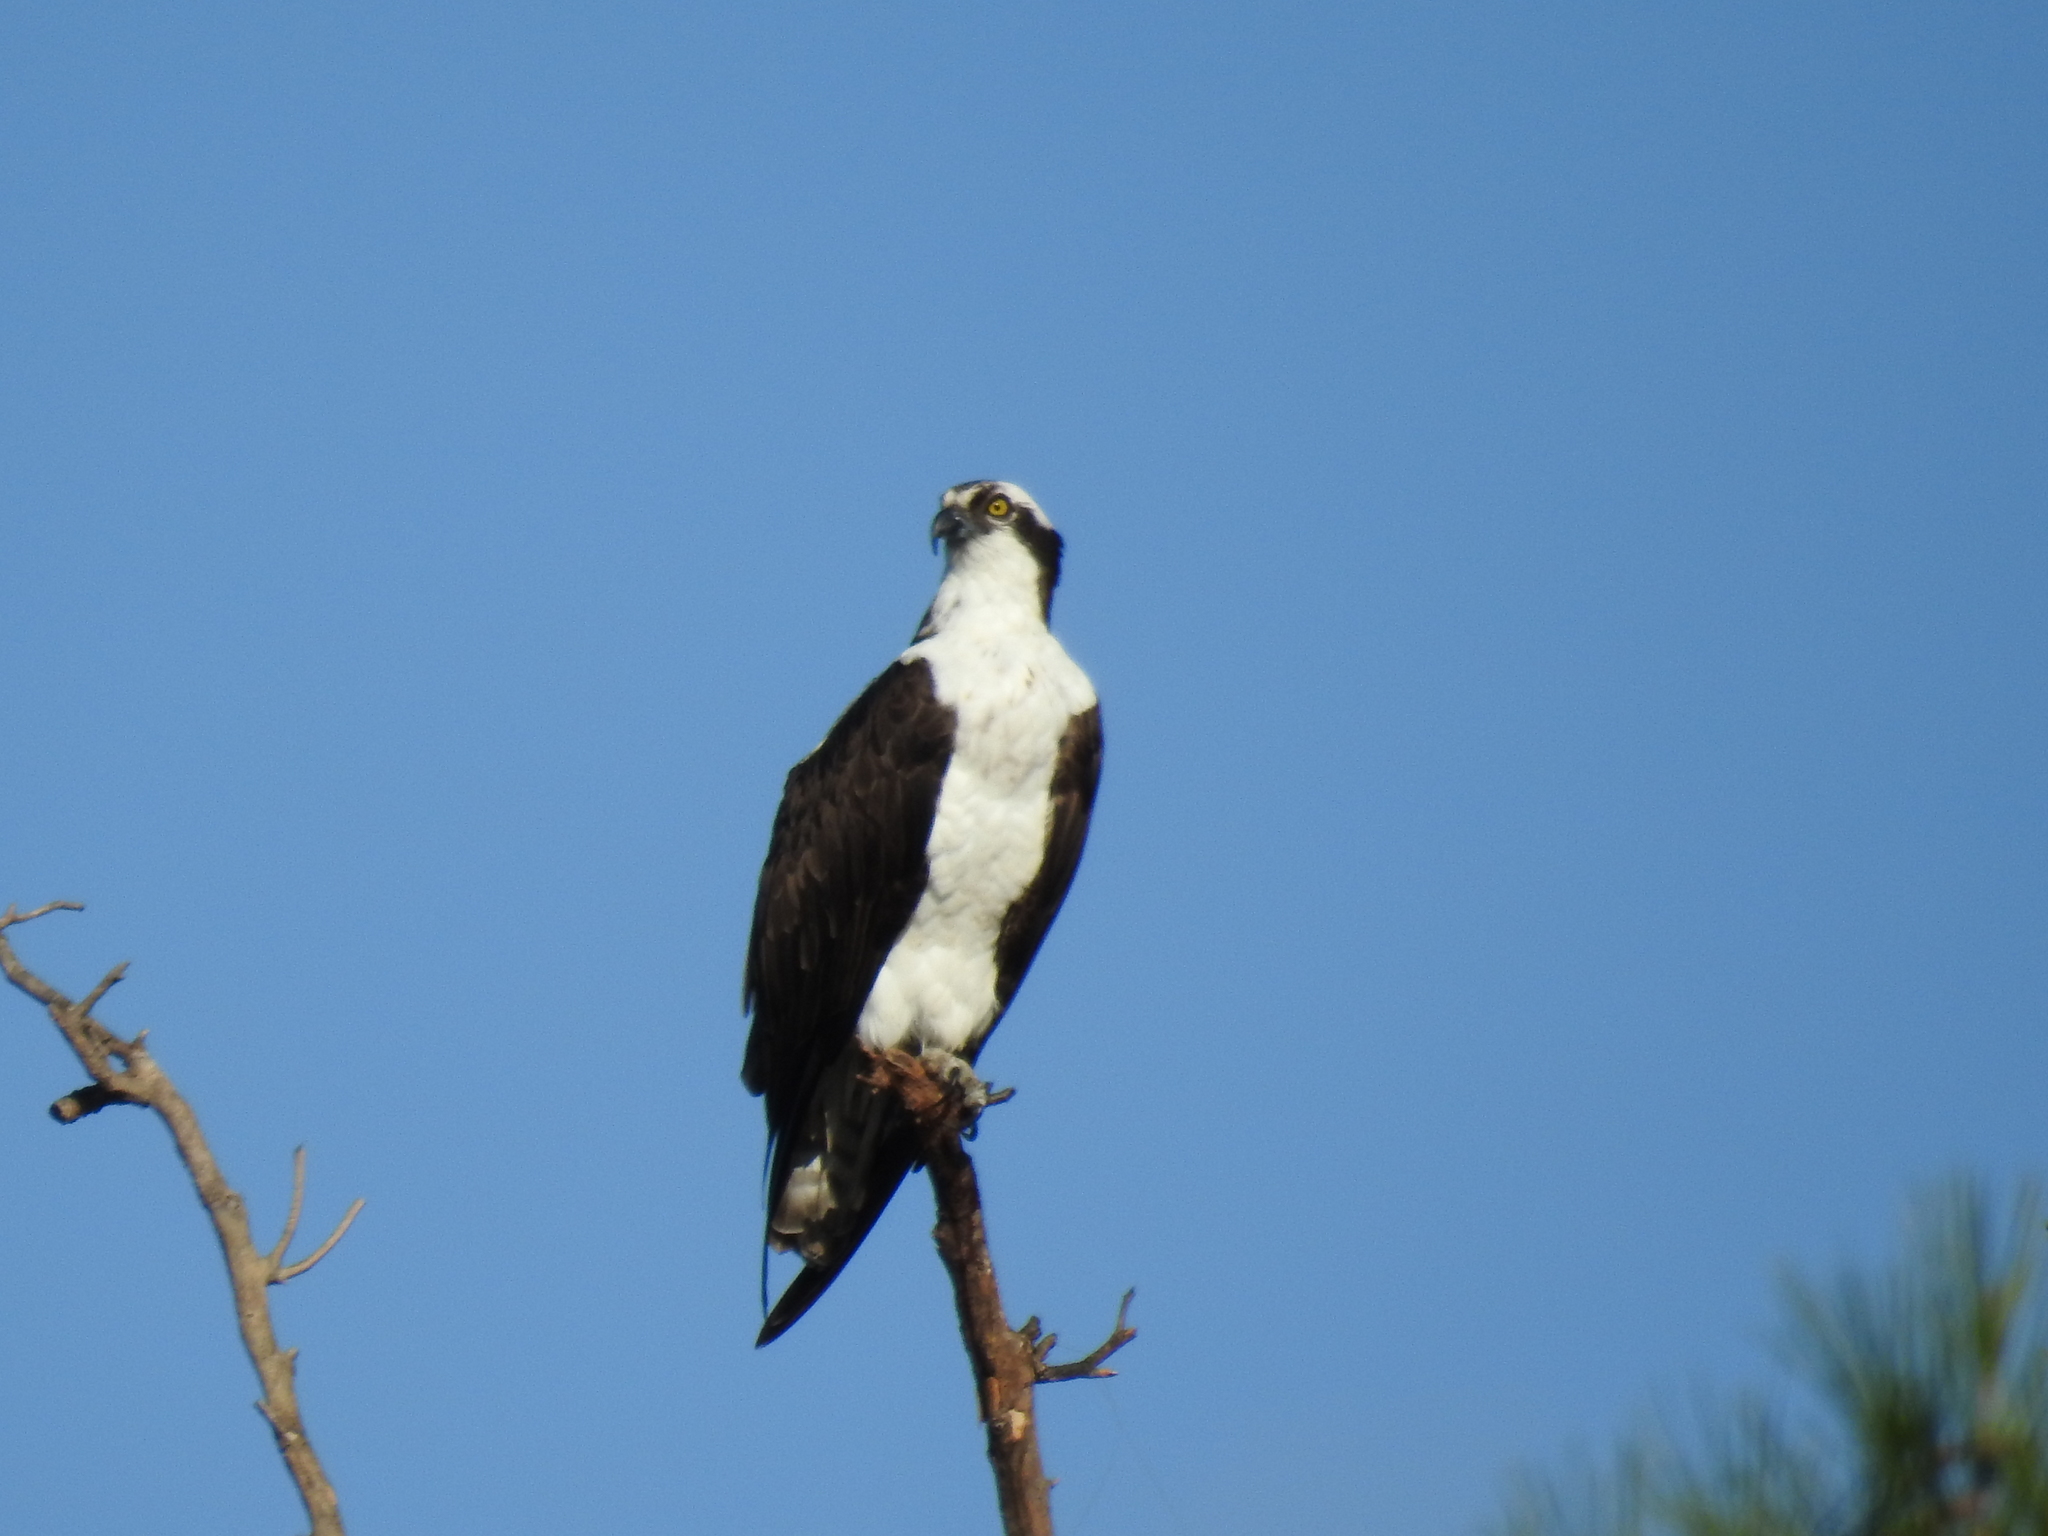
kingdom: Animalia
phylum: Chordata
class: Aves
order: Accipitriformes
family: Pandionidae
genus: Pandion
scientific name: Pandion haliaetus
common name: Osprey
